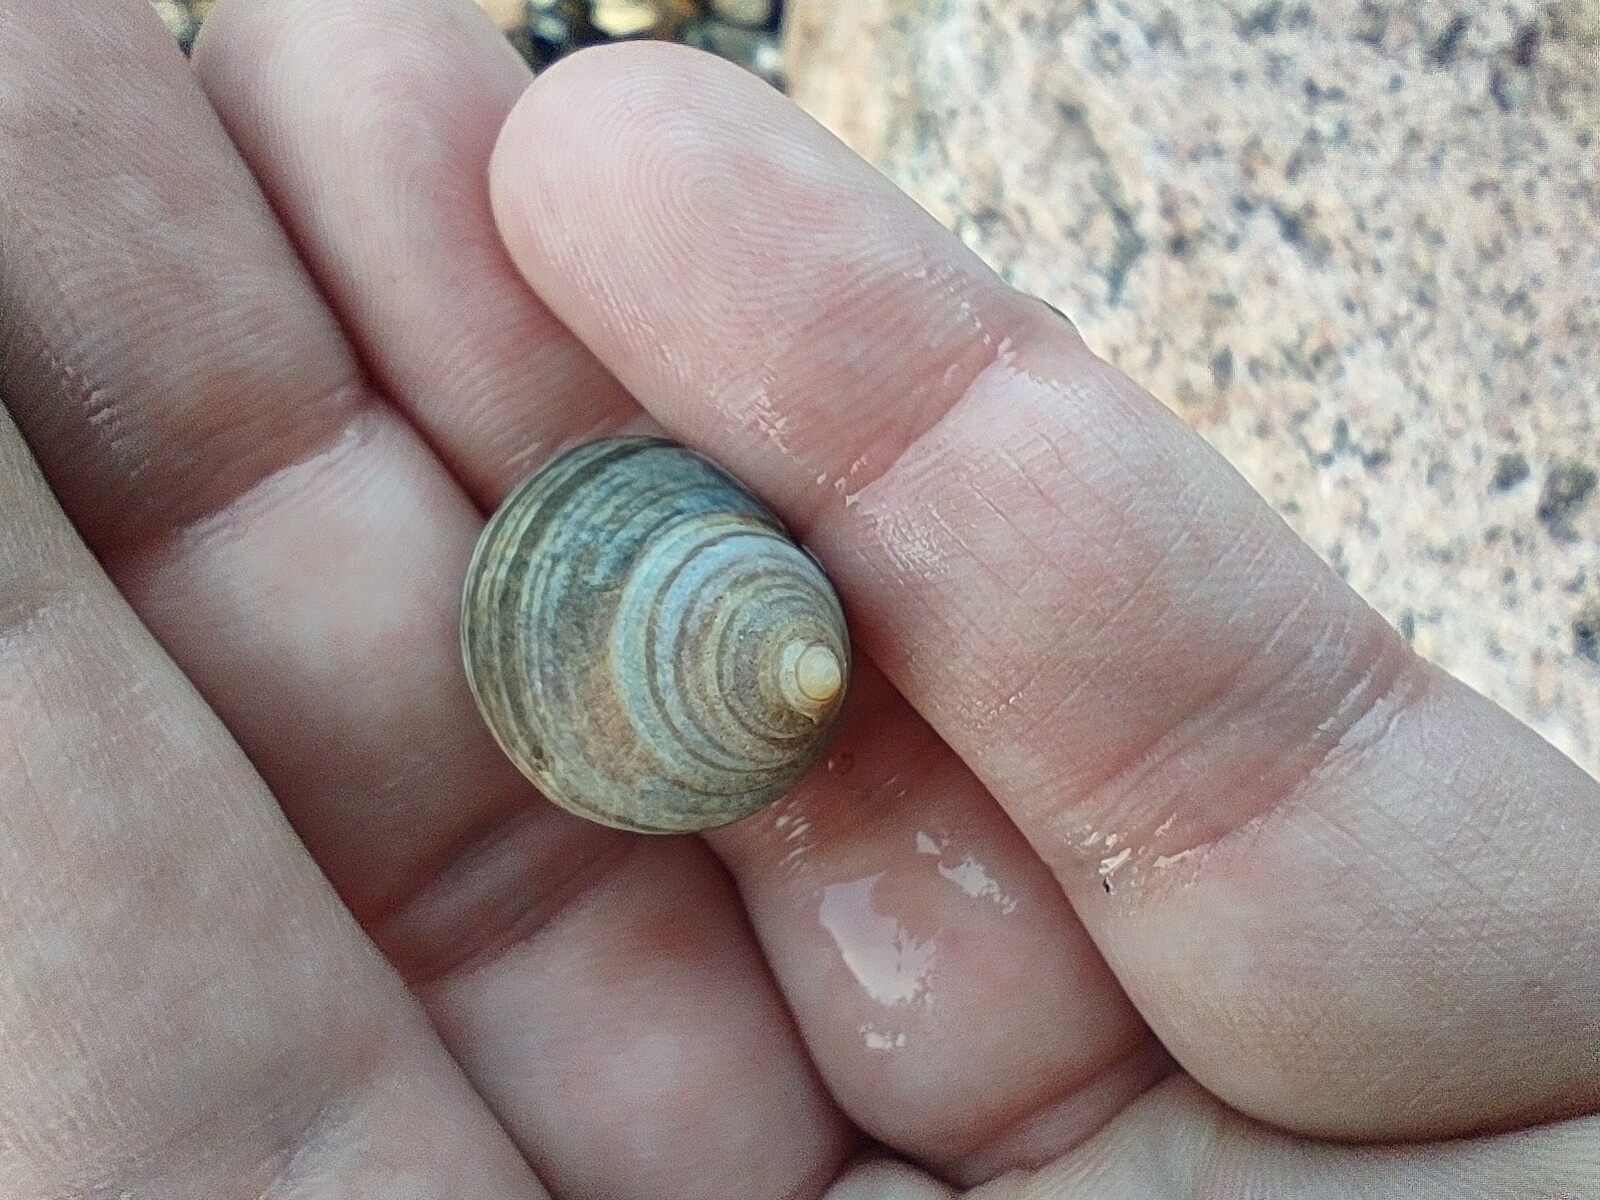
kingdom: Animalia
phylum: Mollusca
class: Gastropoda
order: Littorinimorpha
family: Littorinidae
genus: Littorina
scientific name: Littorina littorea
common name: Common periwinkle
